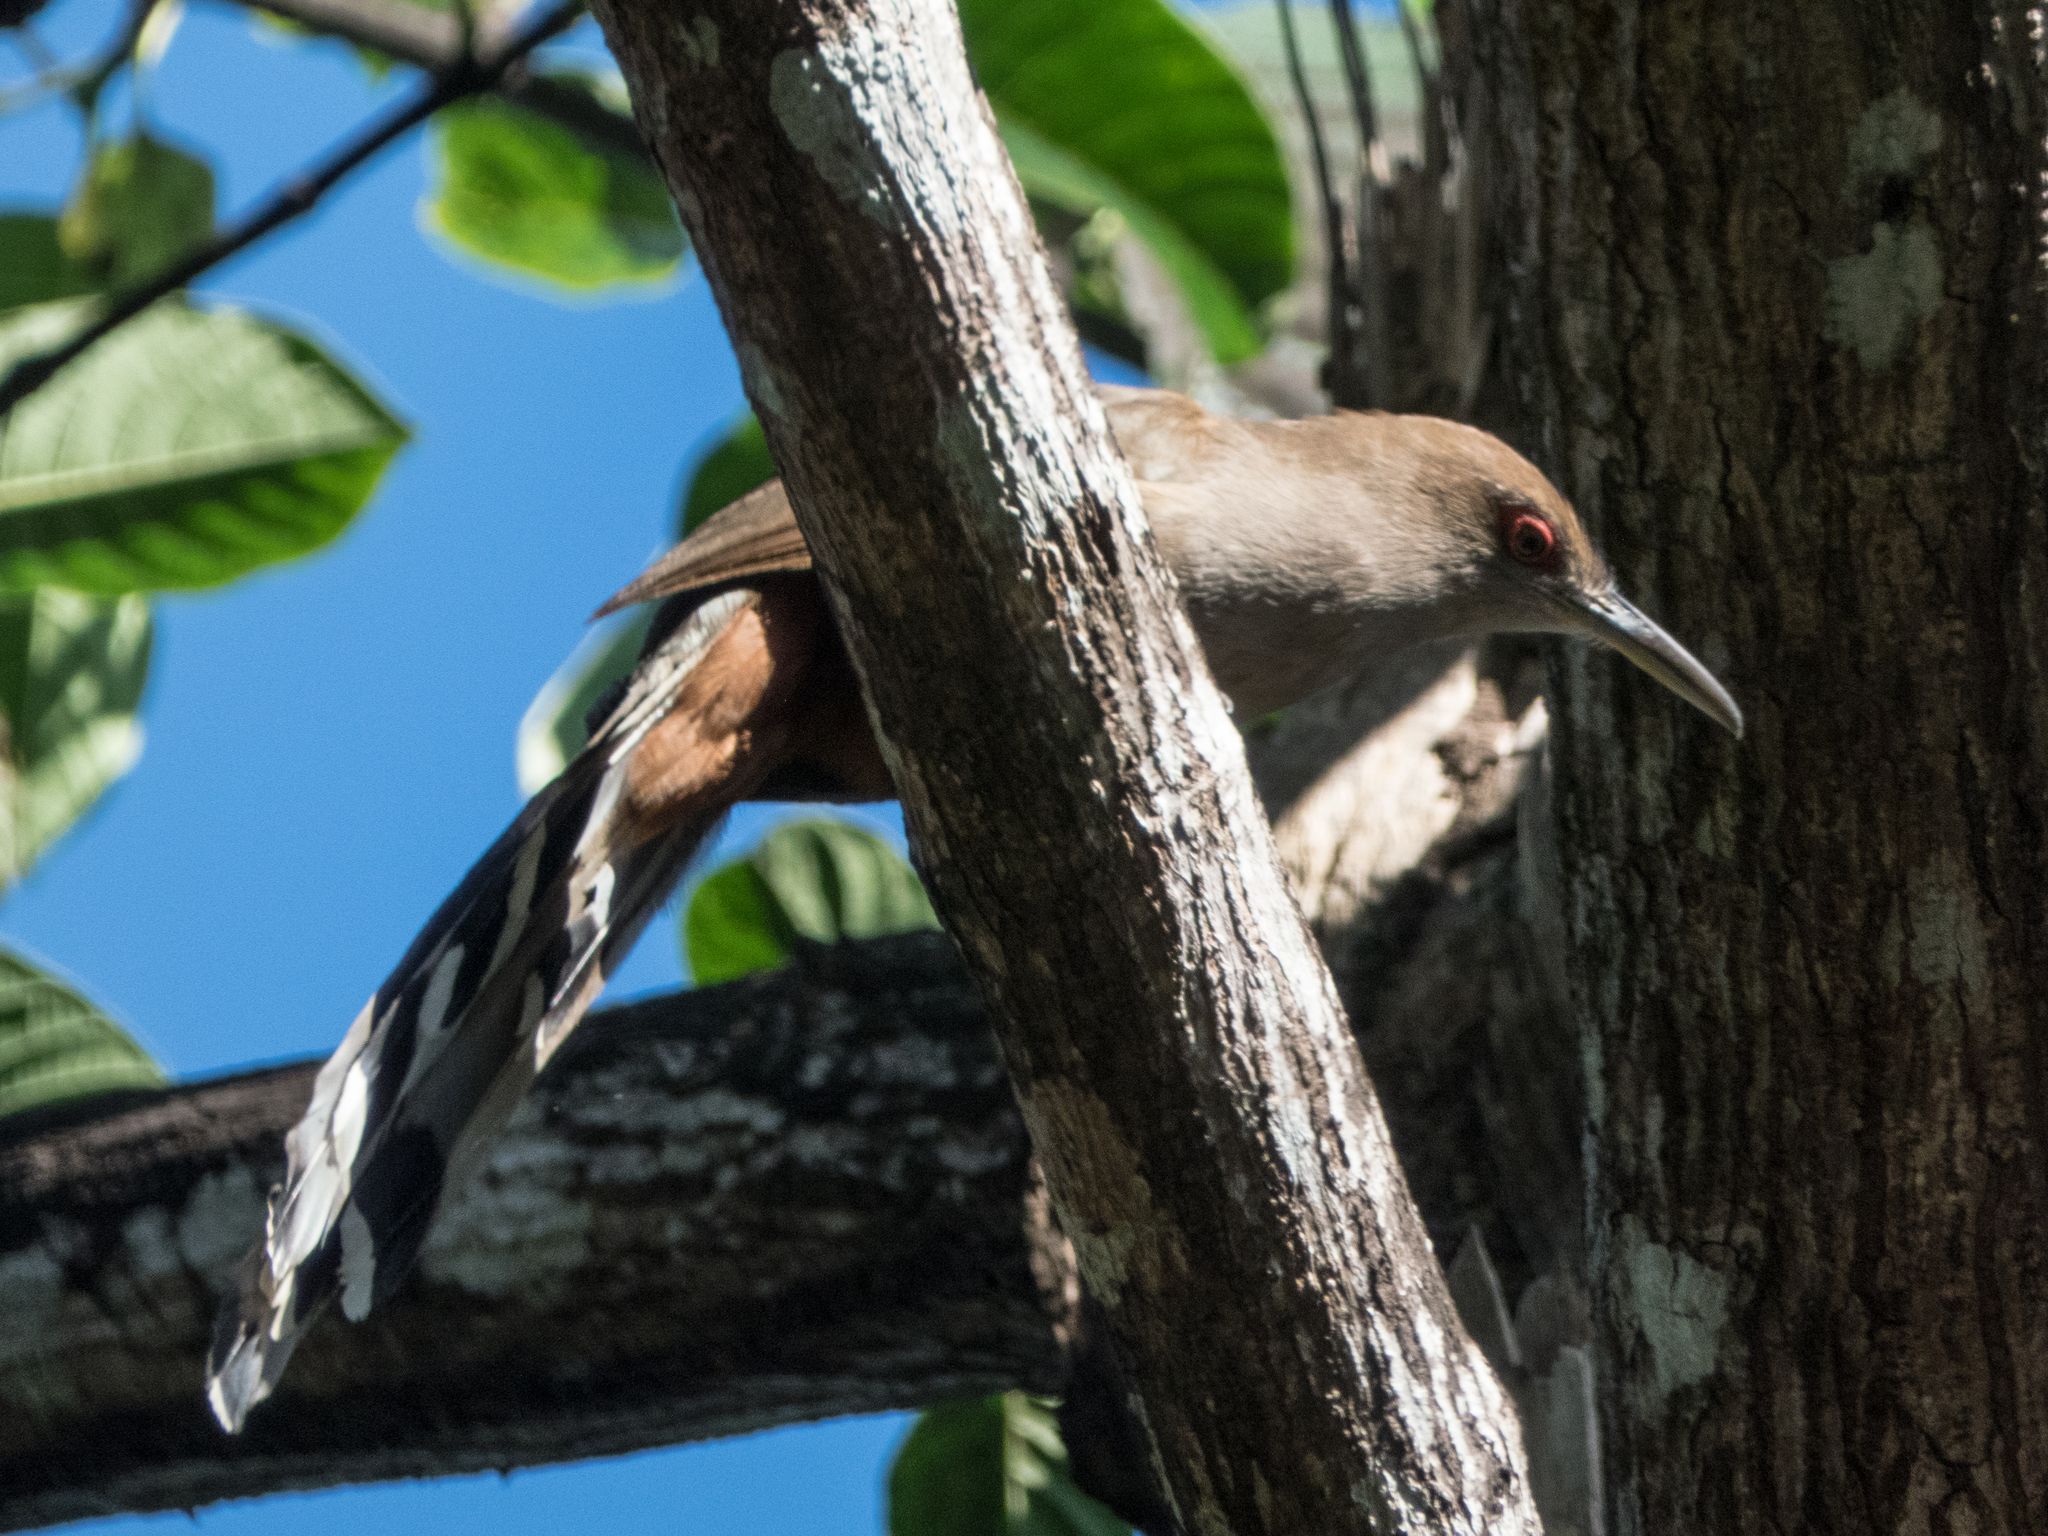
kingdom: Animalia
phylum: Chordata
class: Aves
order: Cuculiformes
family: Cuculidae
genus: Saurothera
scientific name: Saurothera vieilloti
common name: Puerto rican lizard-cuckoo
